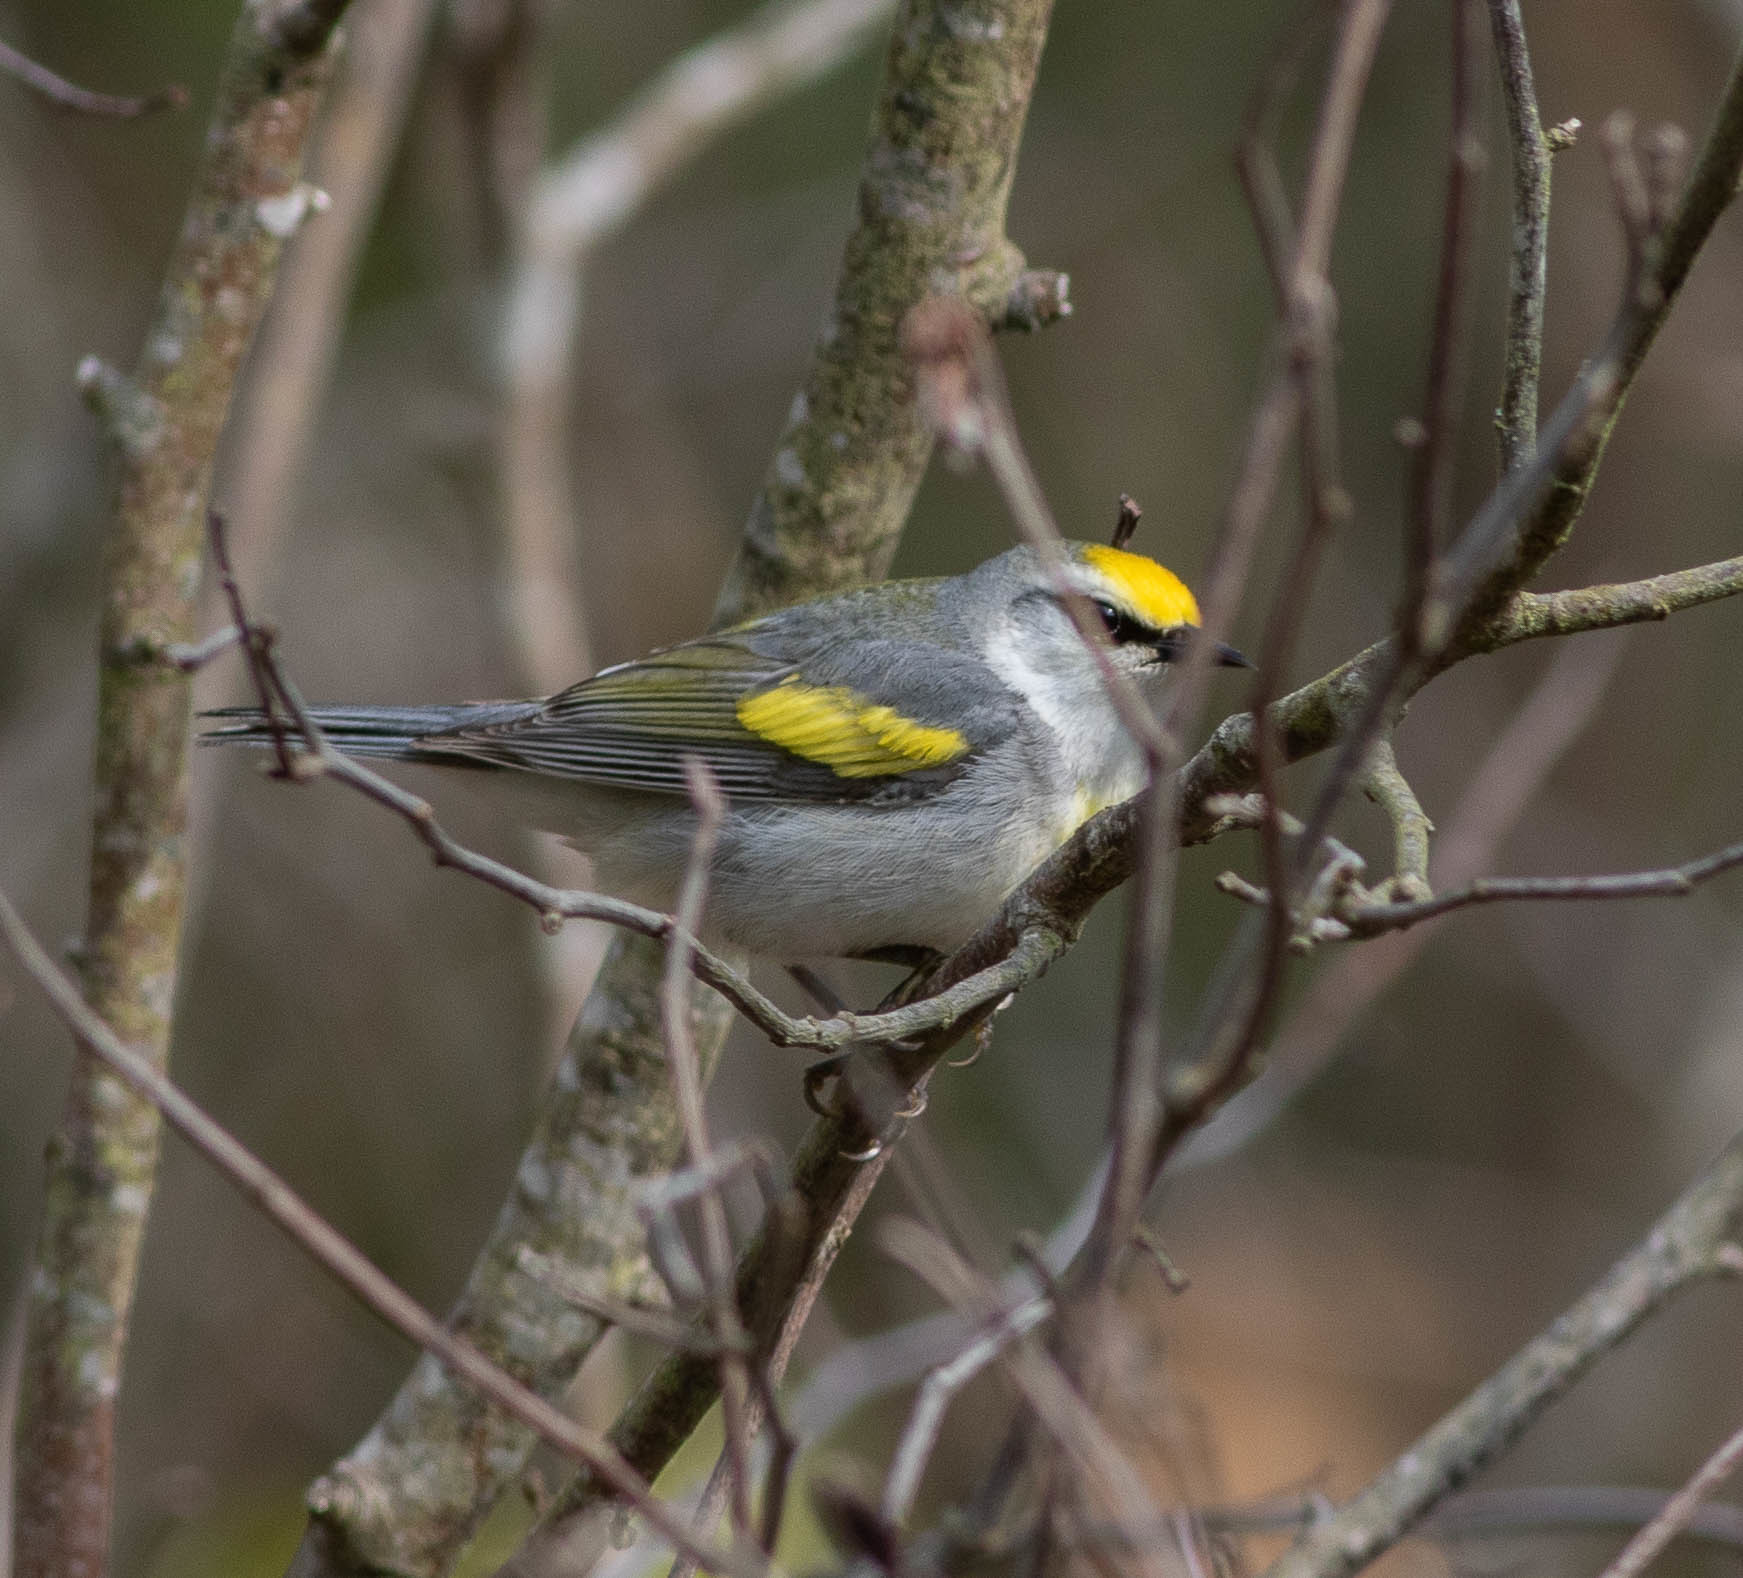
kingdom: Animalia
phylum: Chordata
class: Aves
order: Passeriformes
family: Parulidae
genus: Vermivora
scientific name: Vermivora
